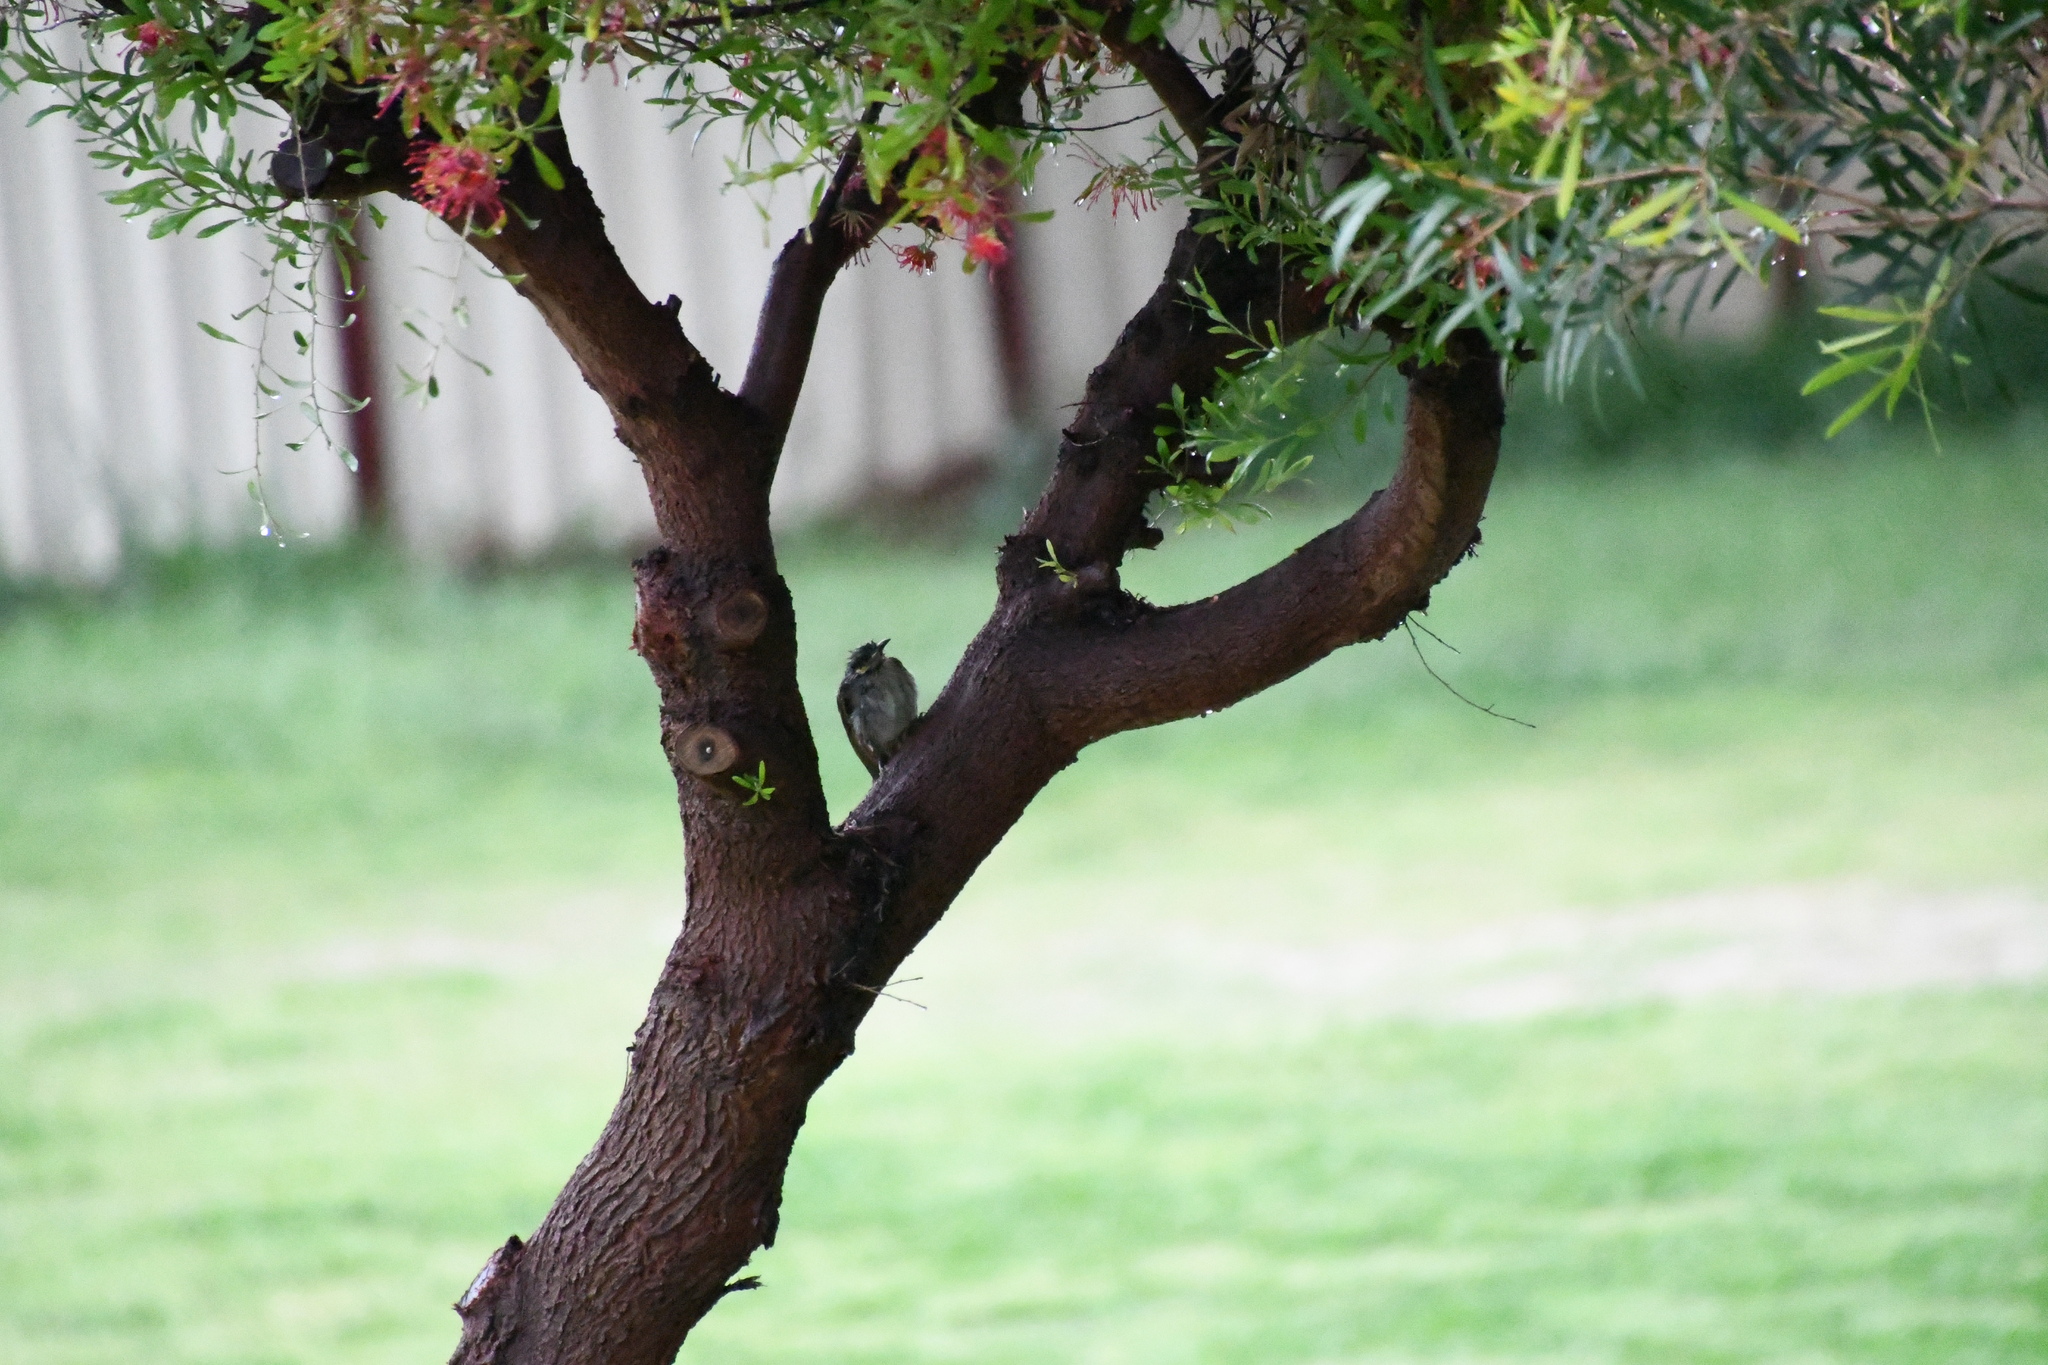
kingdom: Animalia
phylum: Chordata
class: Aves
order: Passeriformes
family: Meliphagidae
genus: Lichmera
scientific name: Lichmera indistincta
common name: Brown honeyeater
